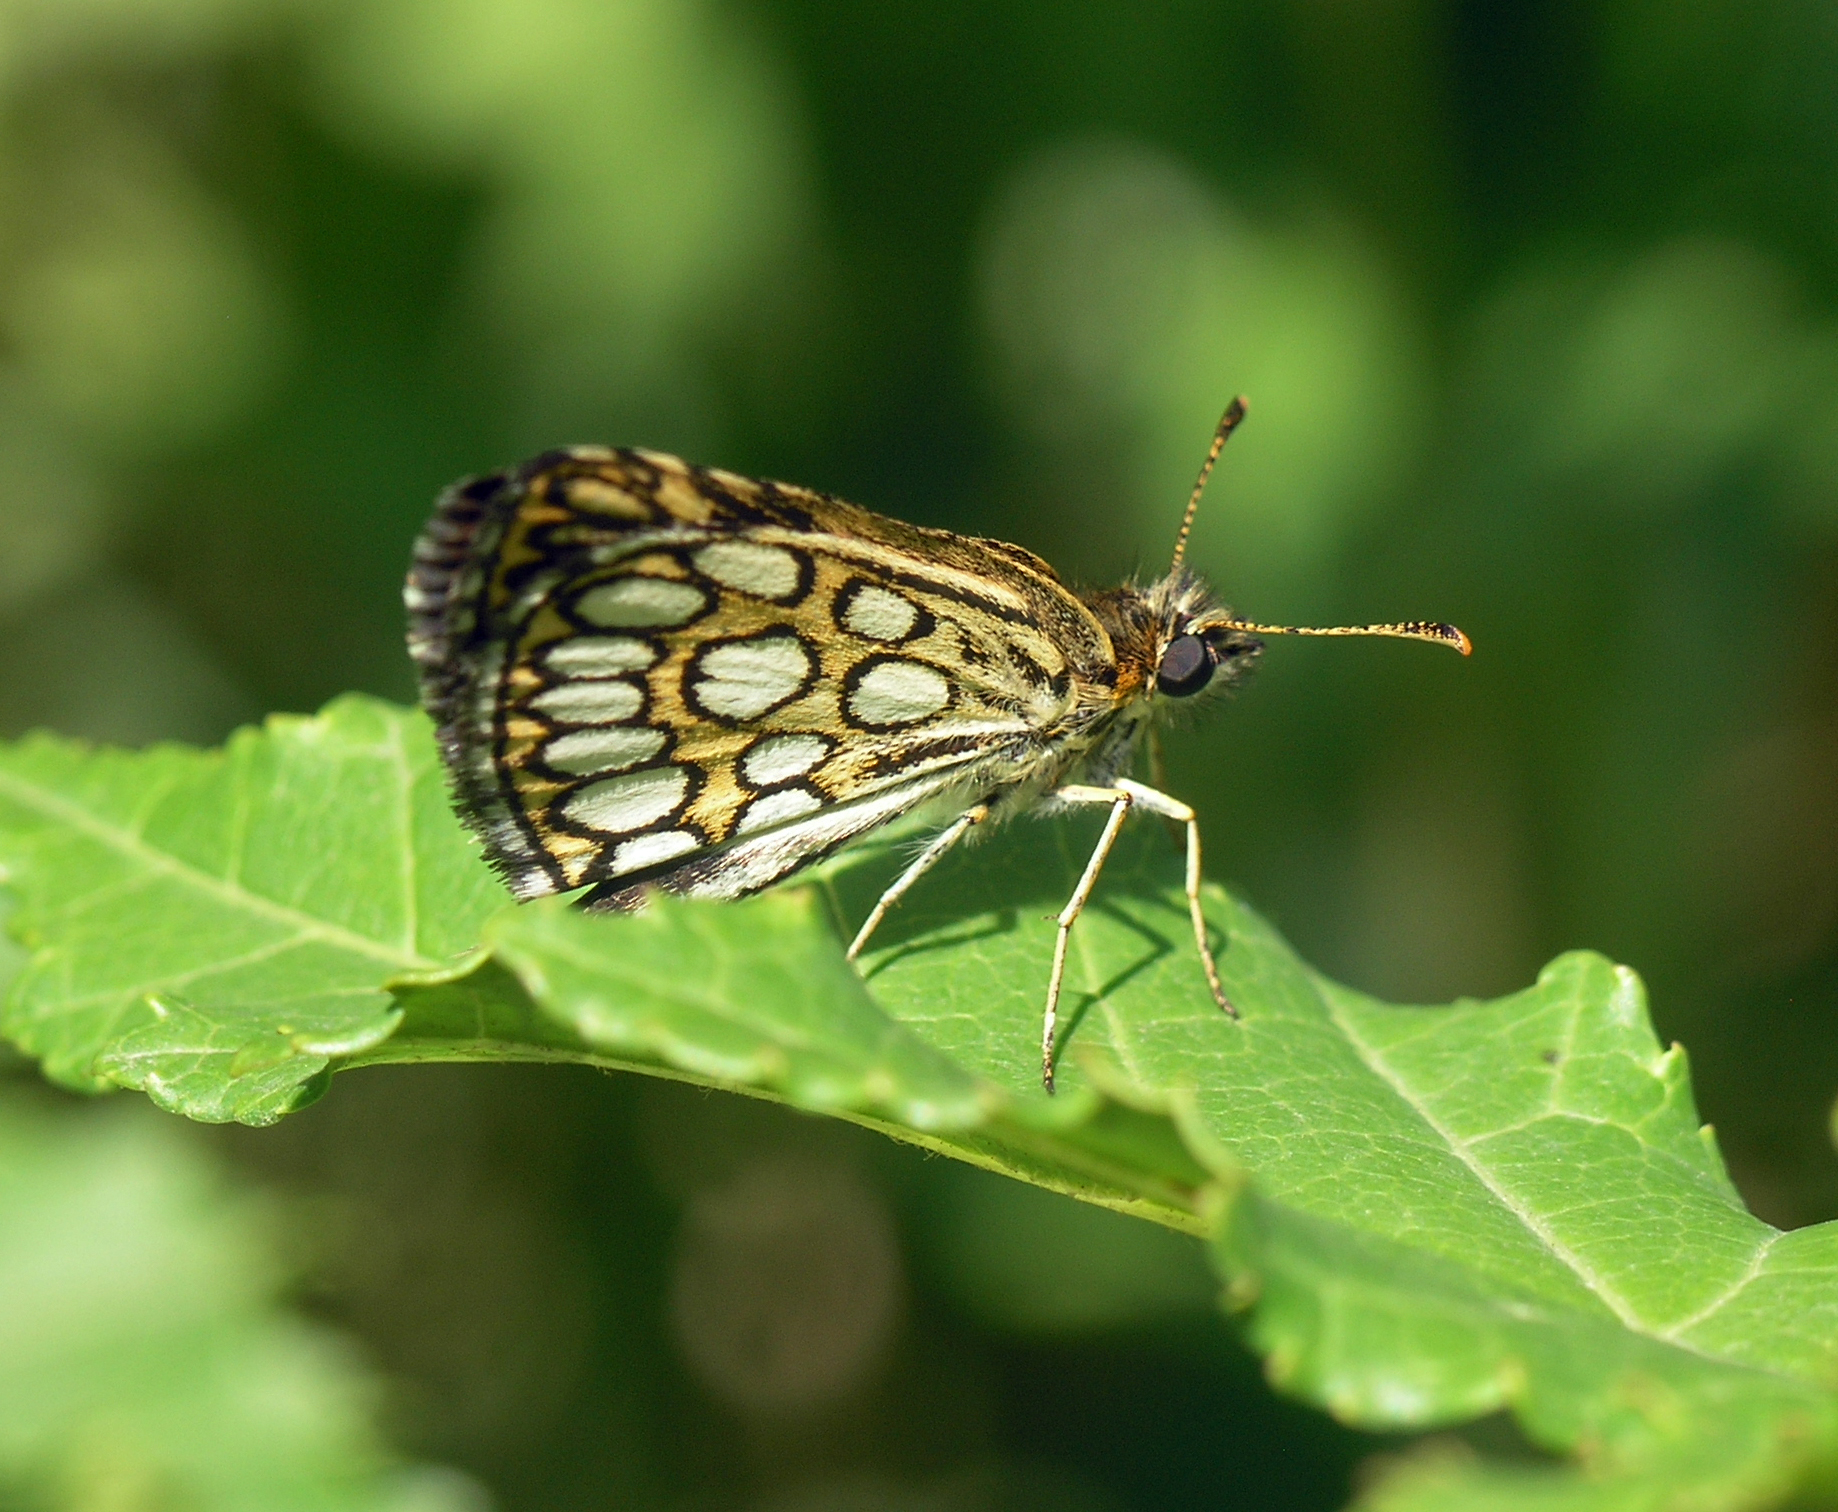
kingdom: Animalia
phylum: Arthropoda
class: Insecta
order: Lepidoptera
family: Hesperiidae
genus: Heteropterus
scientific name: Heteropterus morpheus
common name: Large chequered skipper
